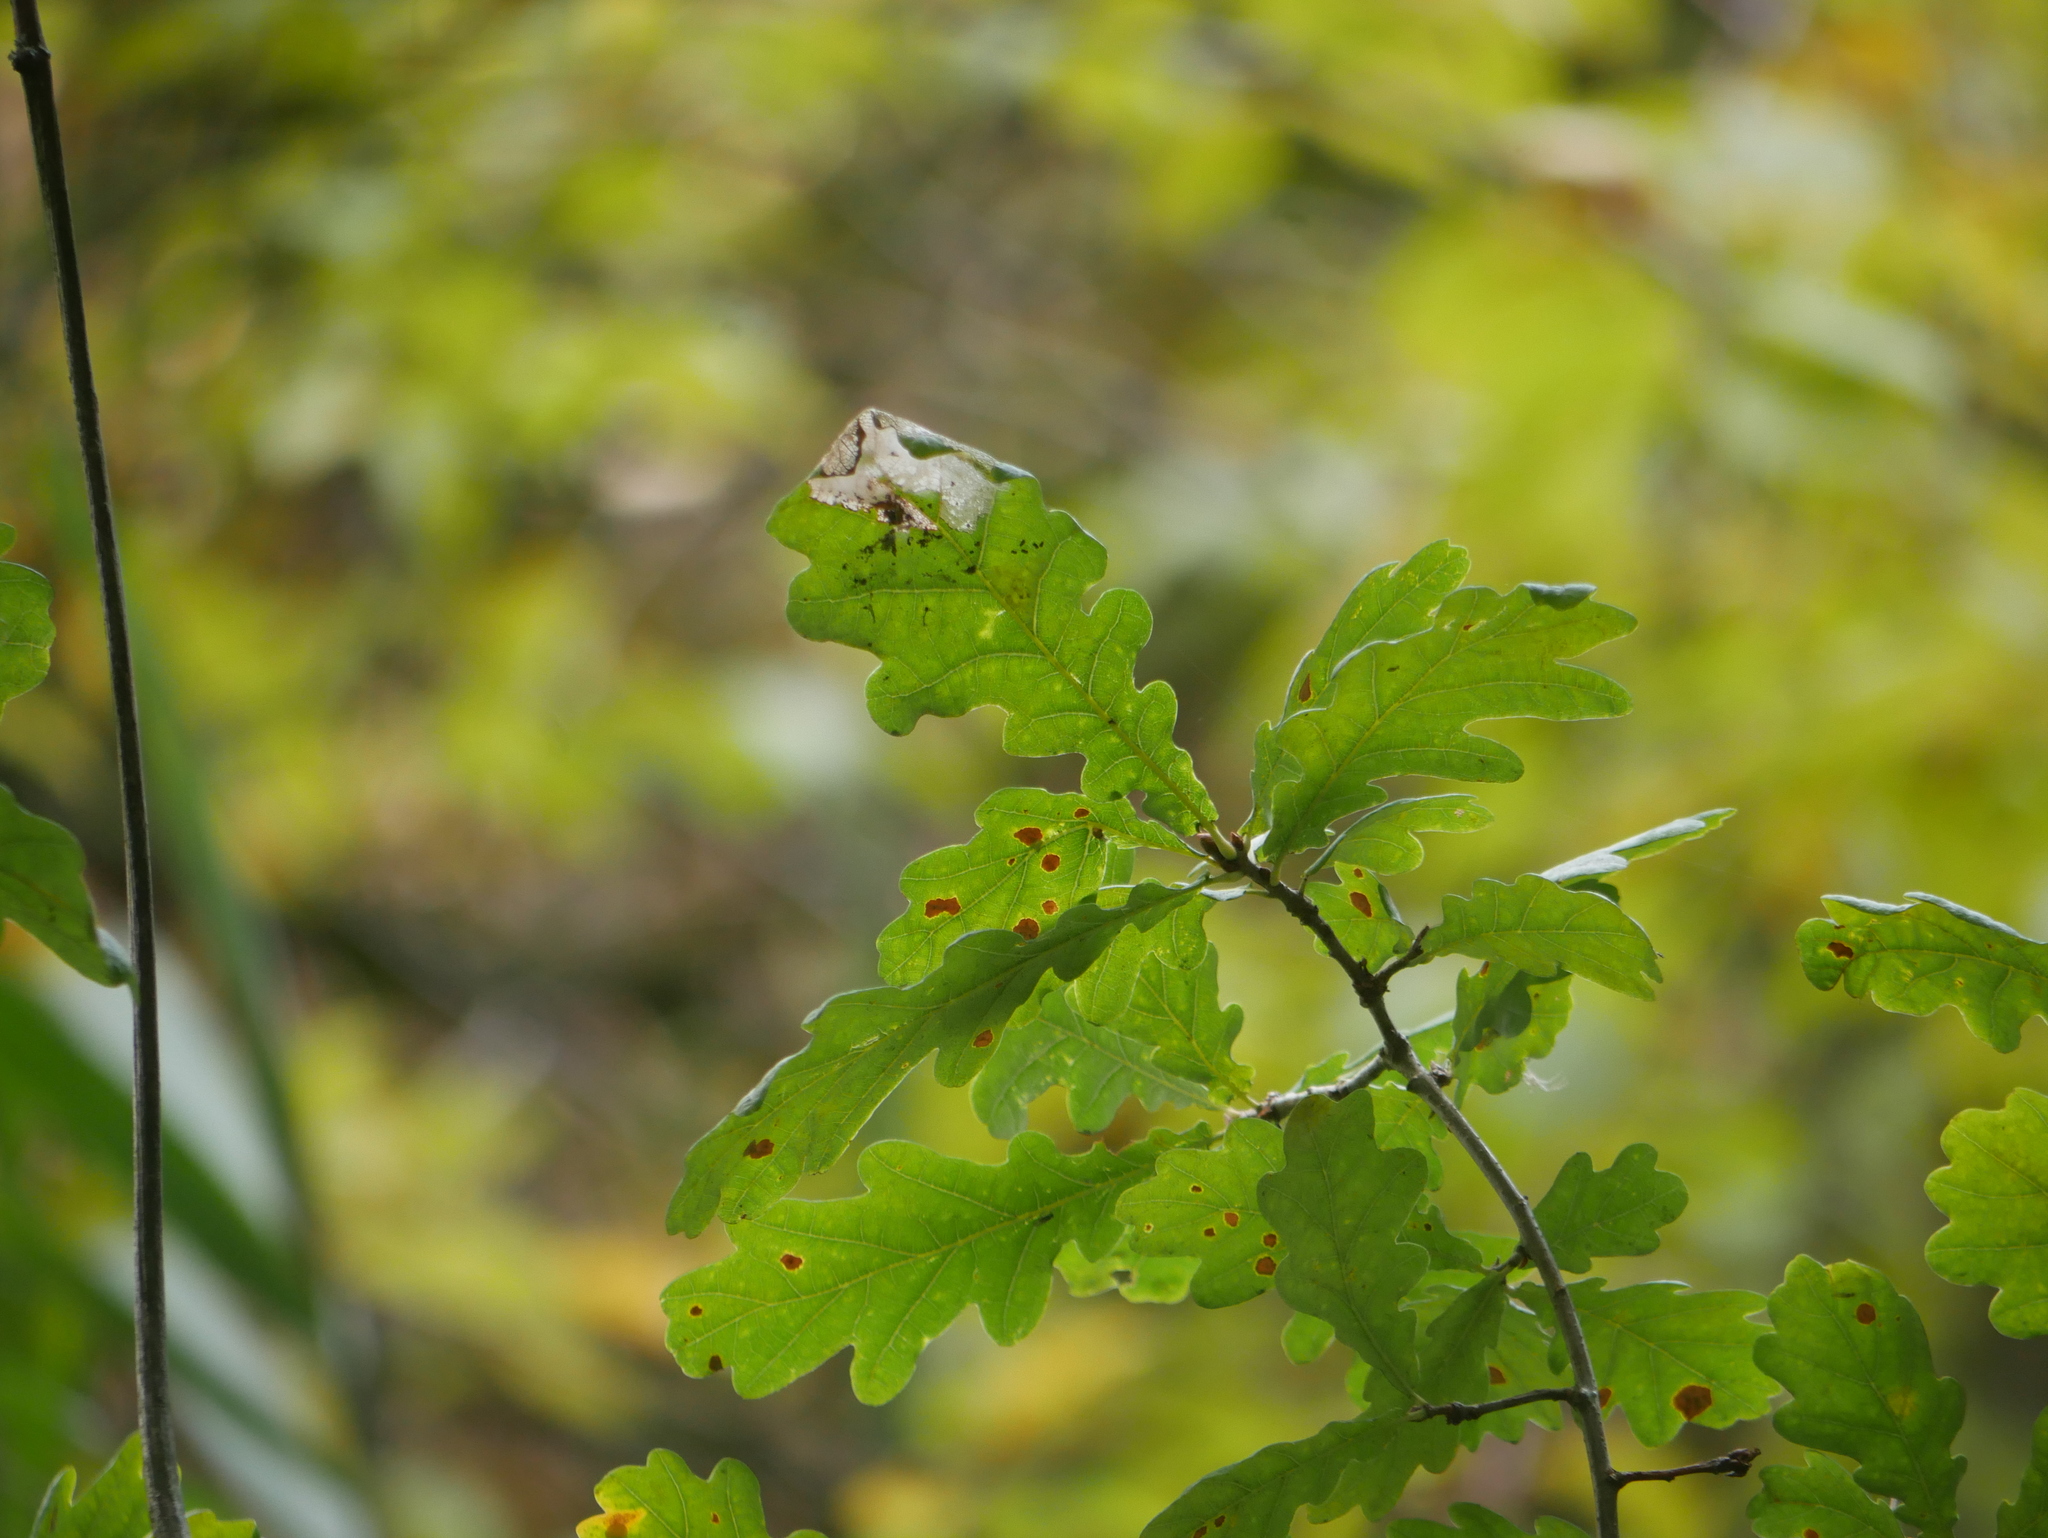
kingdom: Plantae
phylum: Tracheophyta
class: Magnoliopsida
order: Fagales
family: Fagaceae
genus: Quercus
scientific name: Quercus robur
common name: Pedunculate oak
